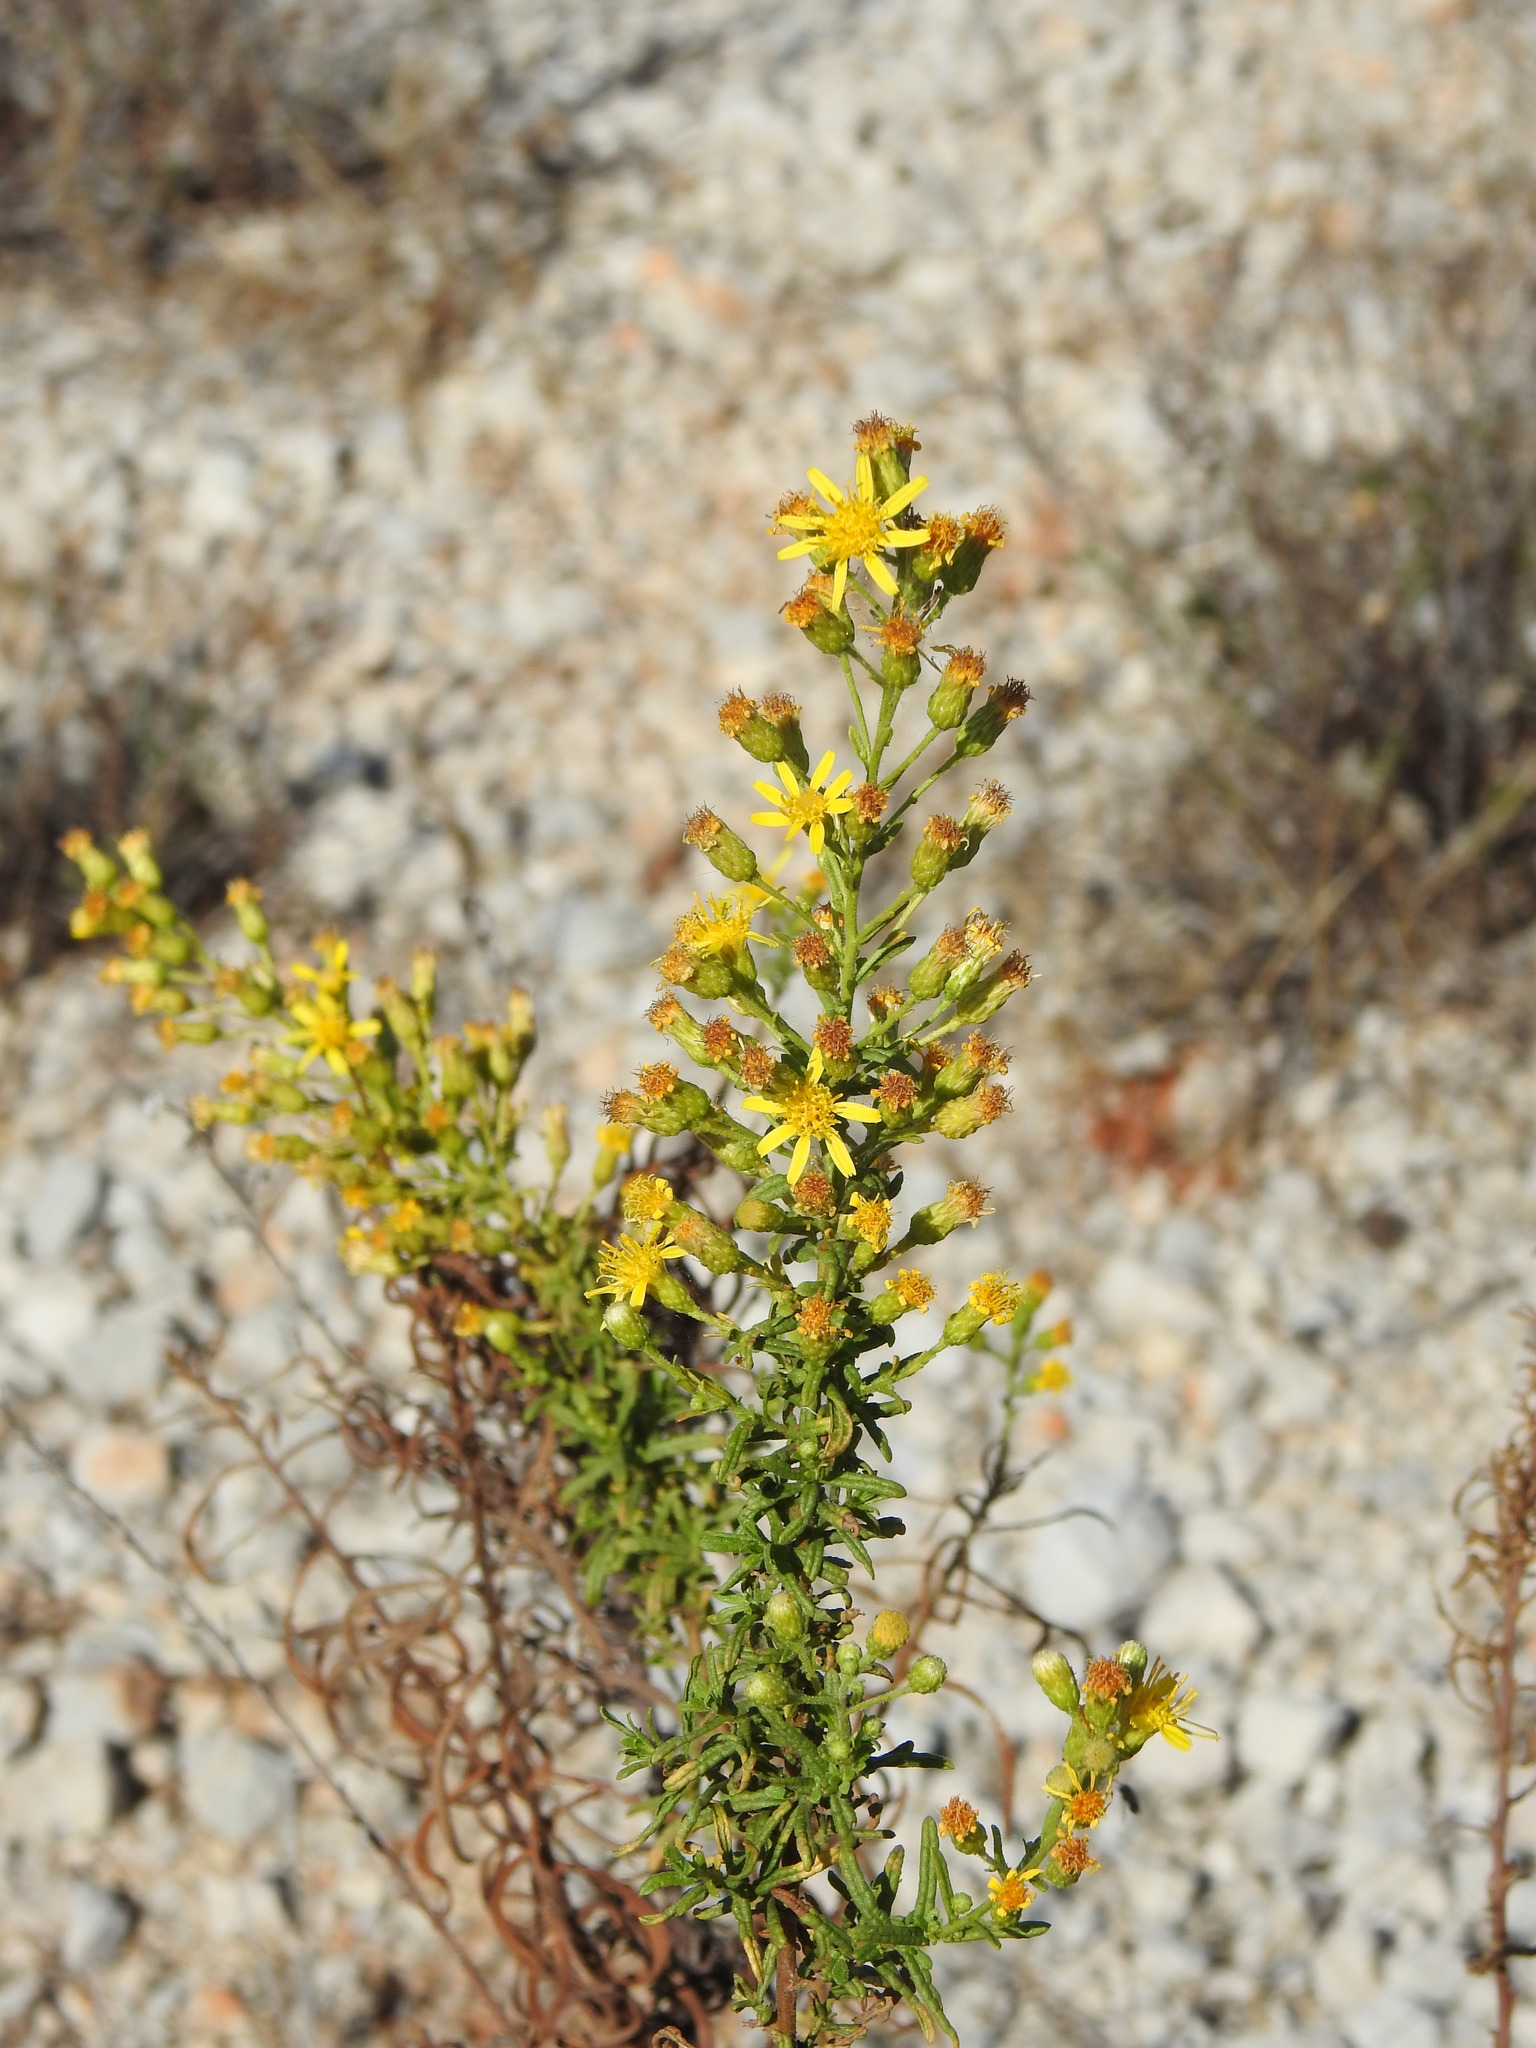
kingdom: Plantae
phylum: Tracheophyta
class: Magnoliopsida
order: Asterales
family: Asteraceae
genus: Dittrichia
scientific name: Dittrichia viscosa
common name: Woody fleabane
